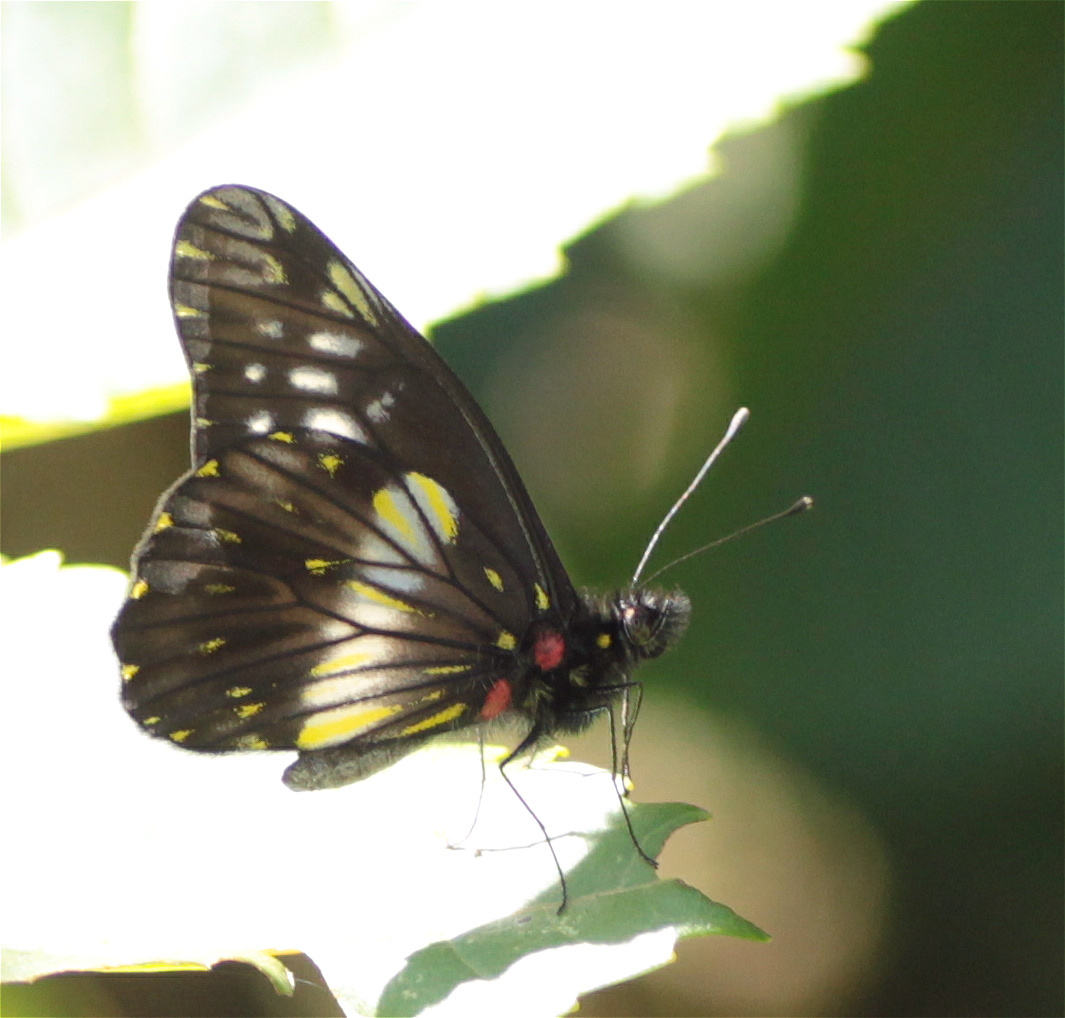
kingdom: Animalia
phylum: Arthropoda
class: Insecta
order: Lepidoptera
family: Pieridae
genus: Archonias
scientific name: Archonias flisa
